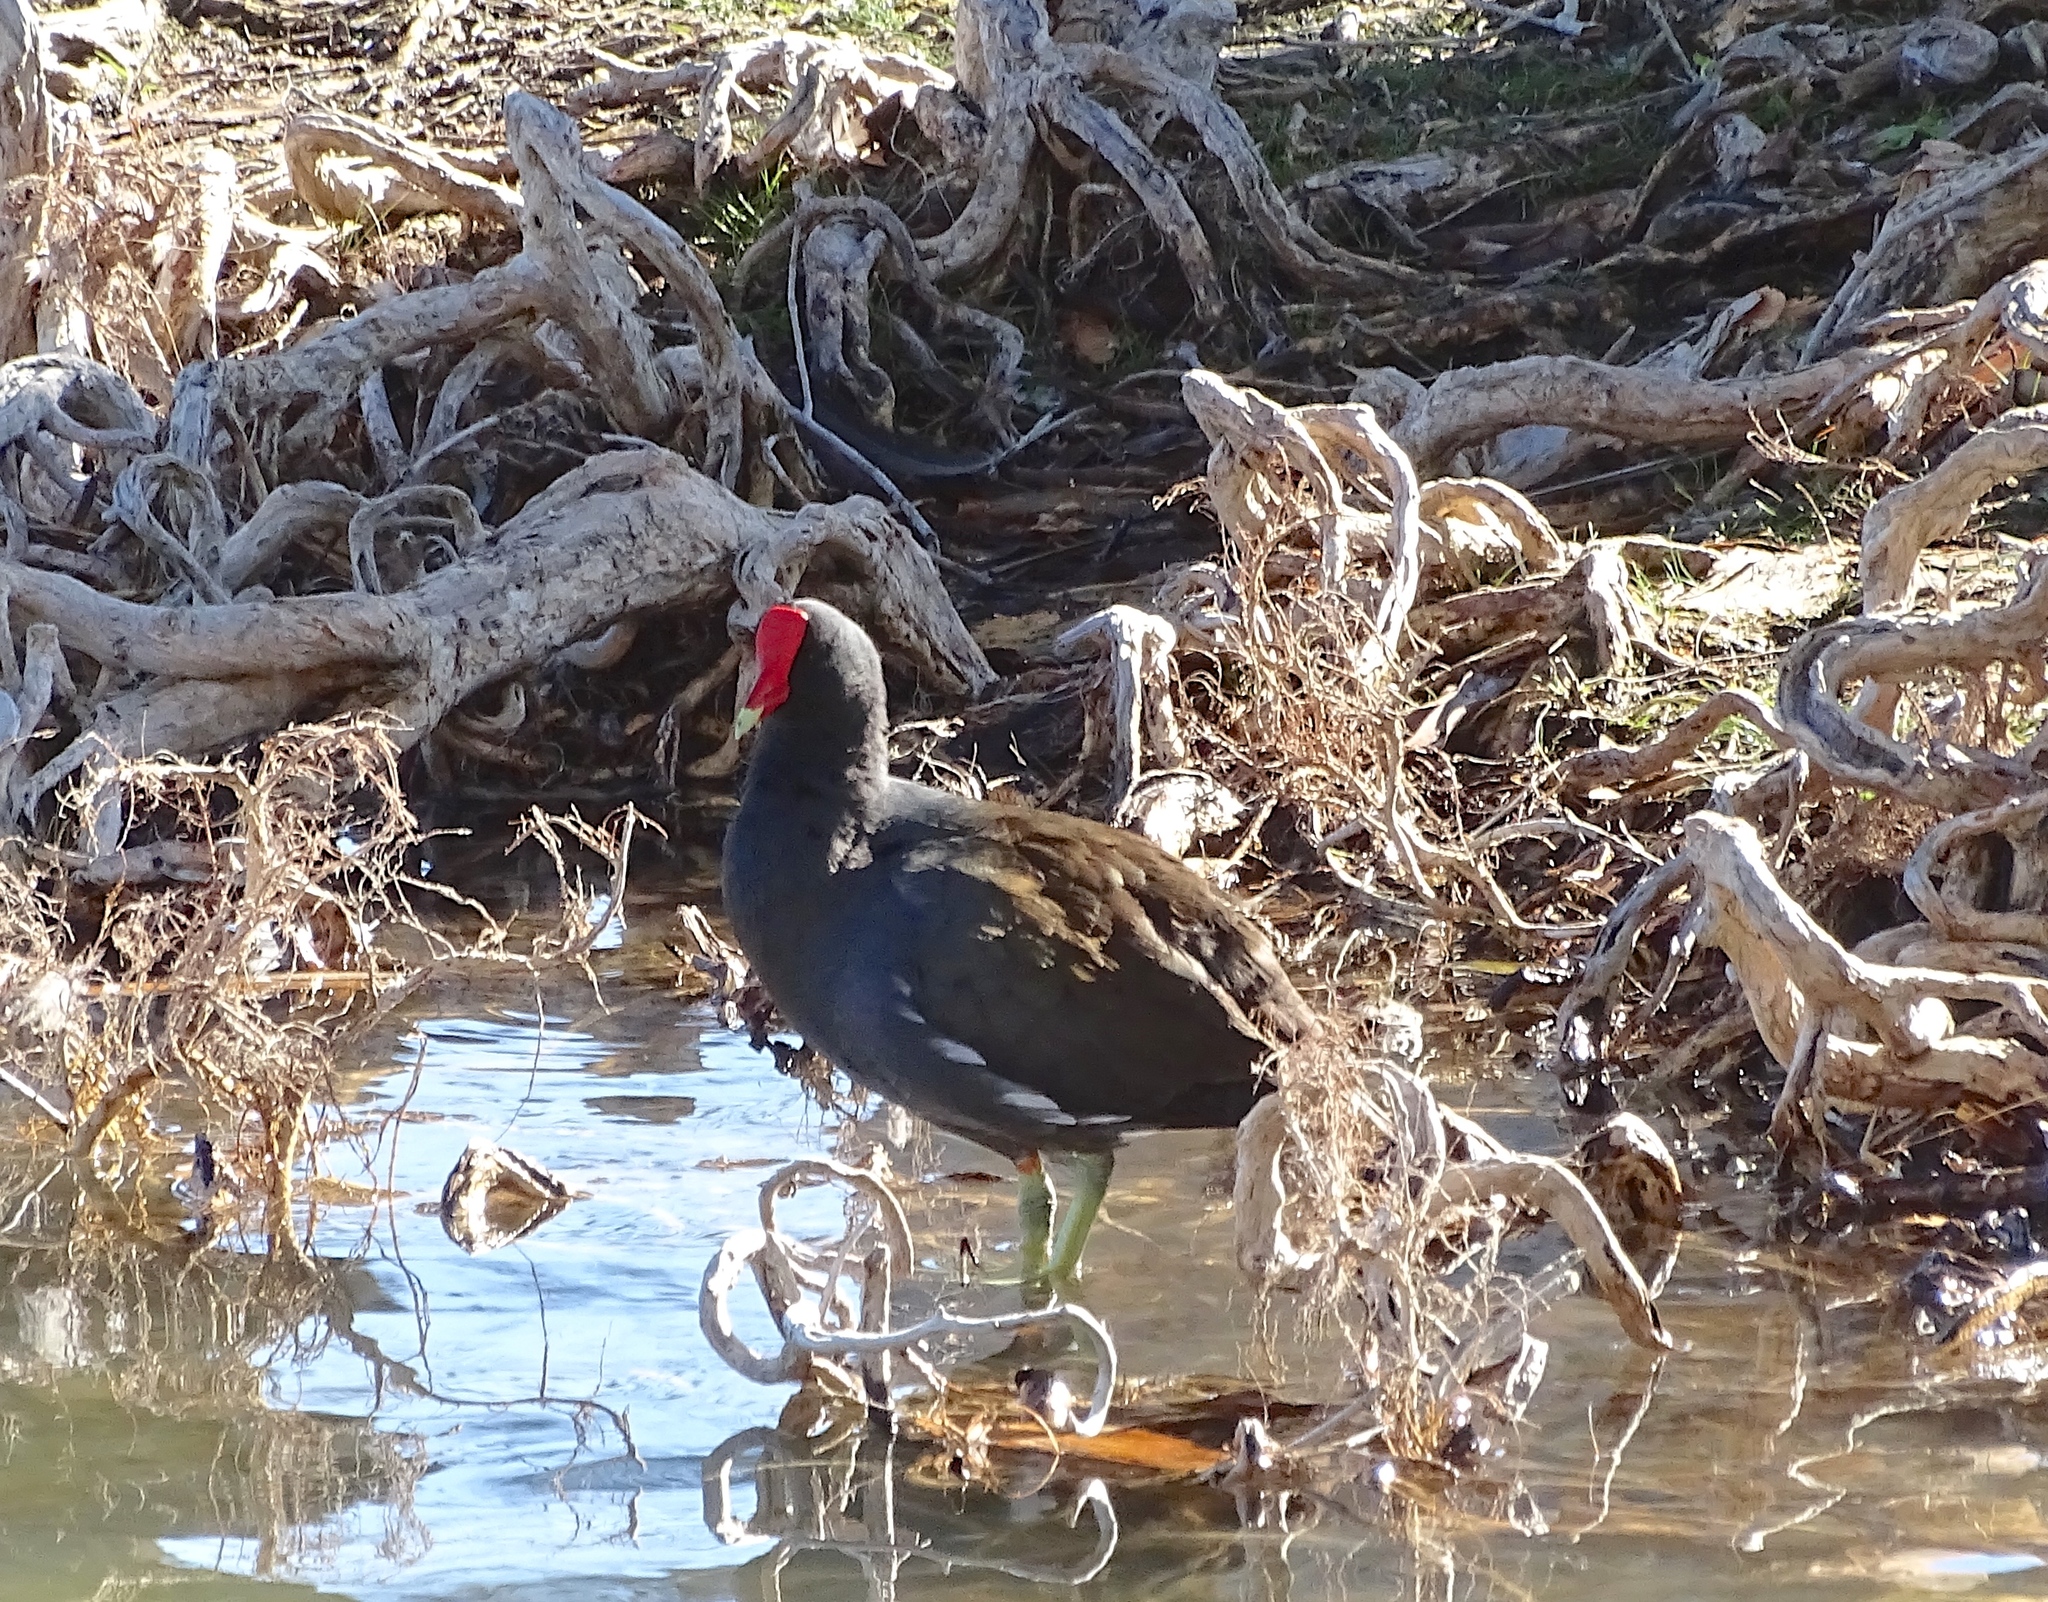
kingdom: Animalia
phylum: Chordata
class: Aves
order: Gruiformes
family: Rallidae
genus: Gallinula
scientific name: Gallinula chloropus
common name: Common moorhen
